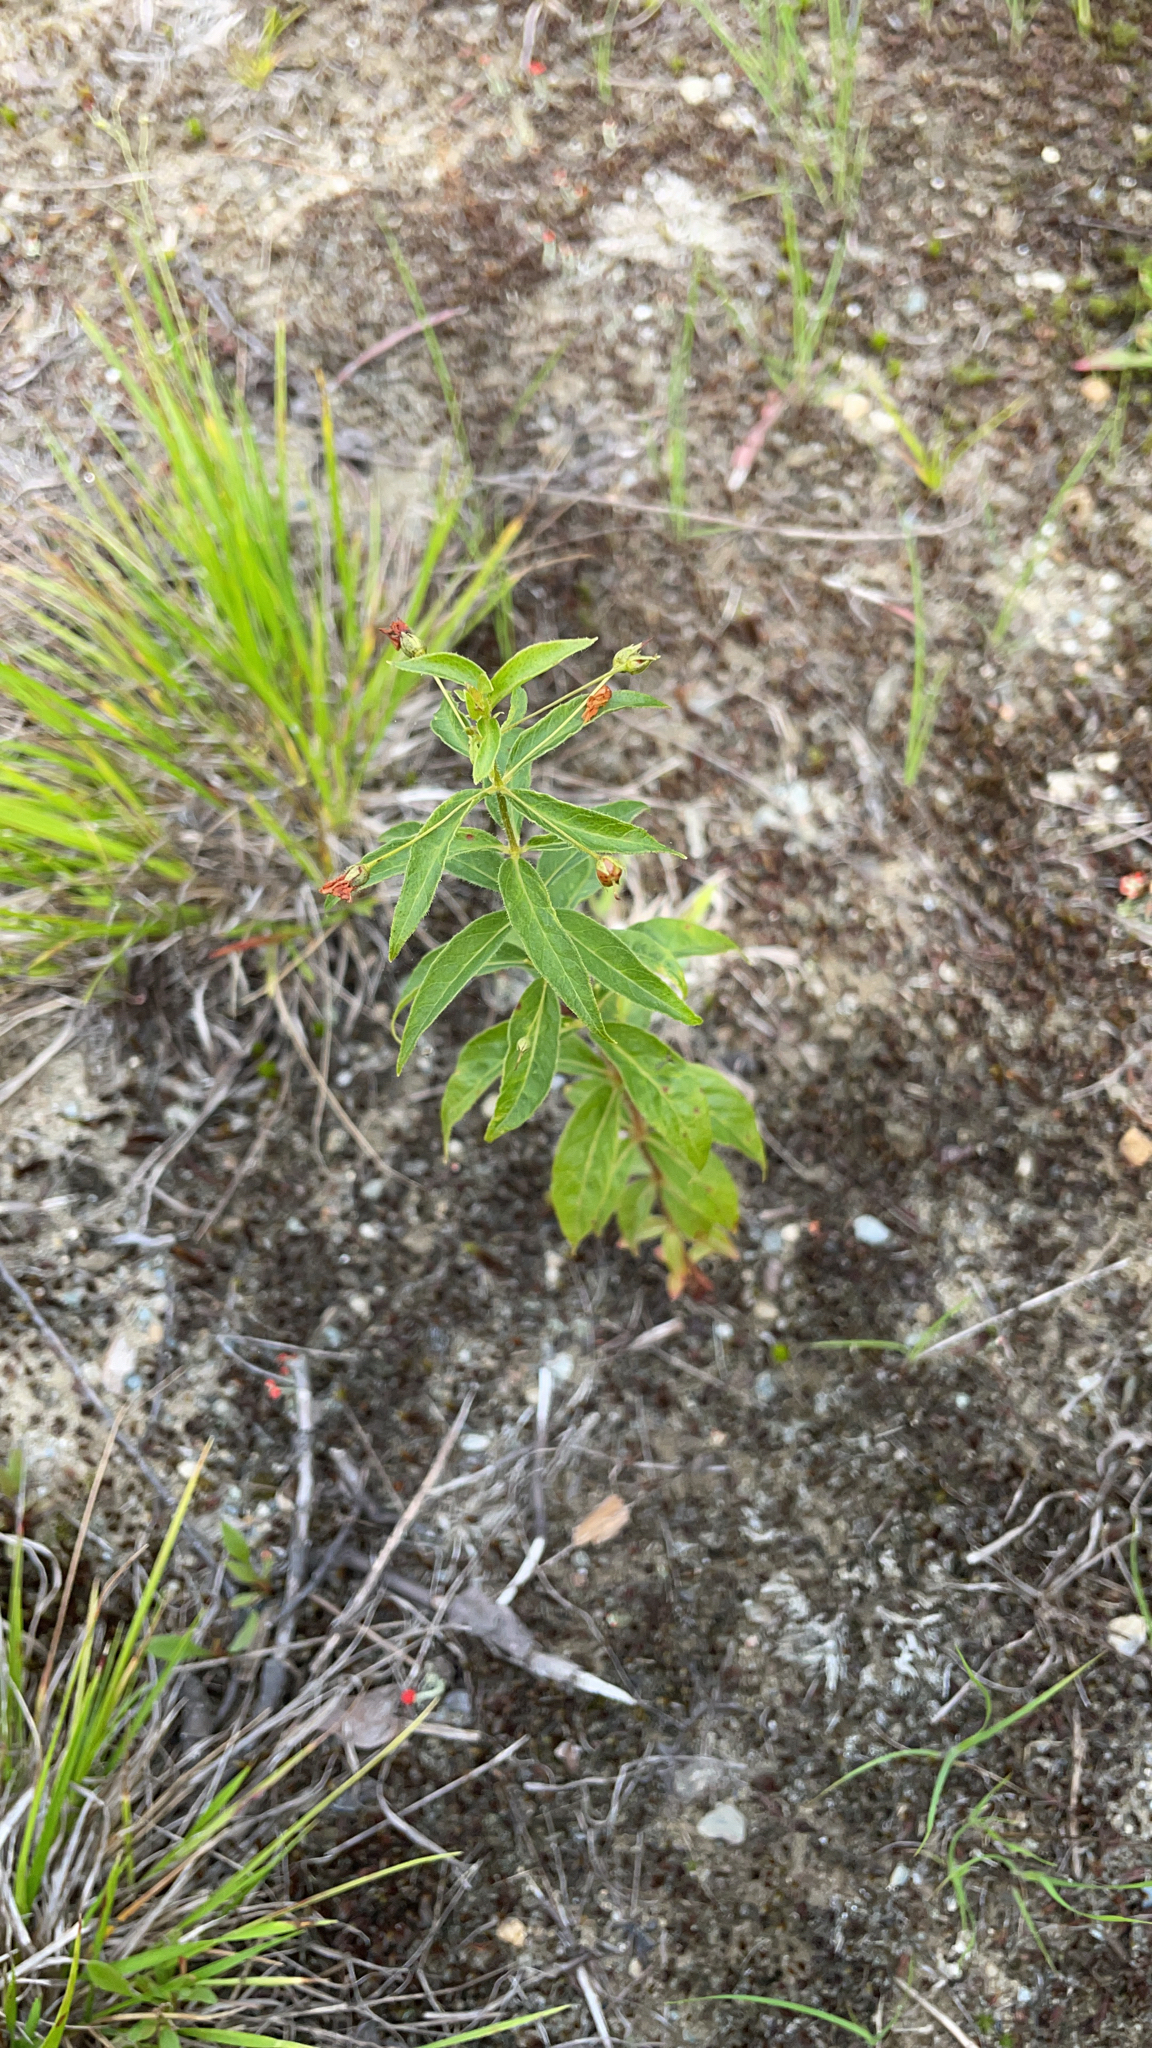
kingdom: Plantae
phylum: Tracheophyta
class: Magnoliopsida
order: Ericales
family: Primulaceae
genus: Lysimachia
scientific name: Lysimachia quadrifolia
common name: Whorled loosestrife
